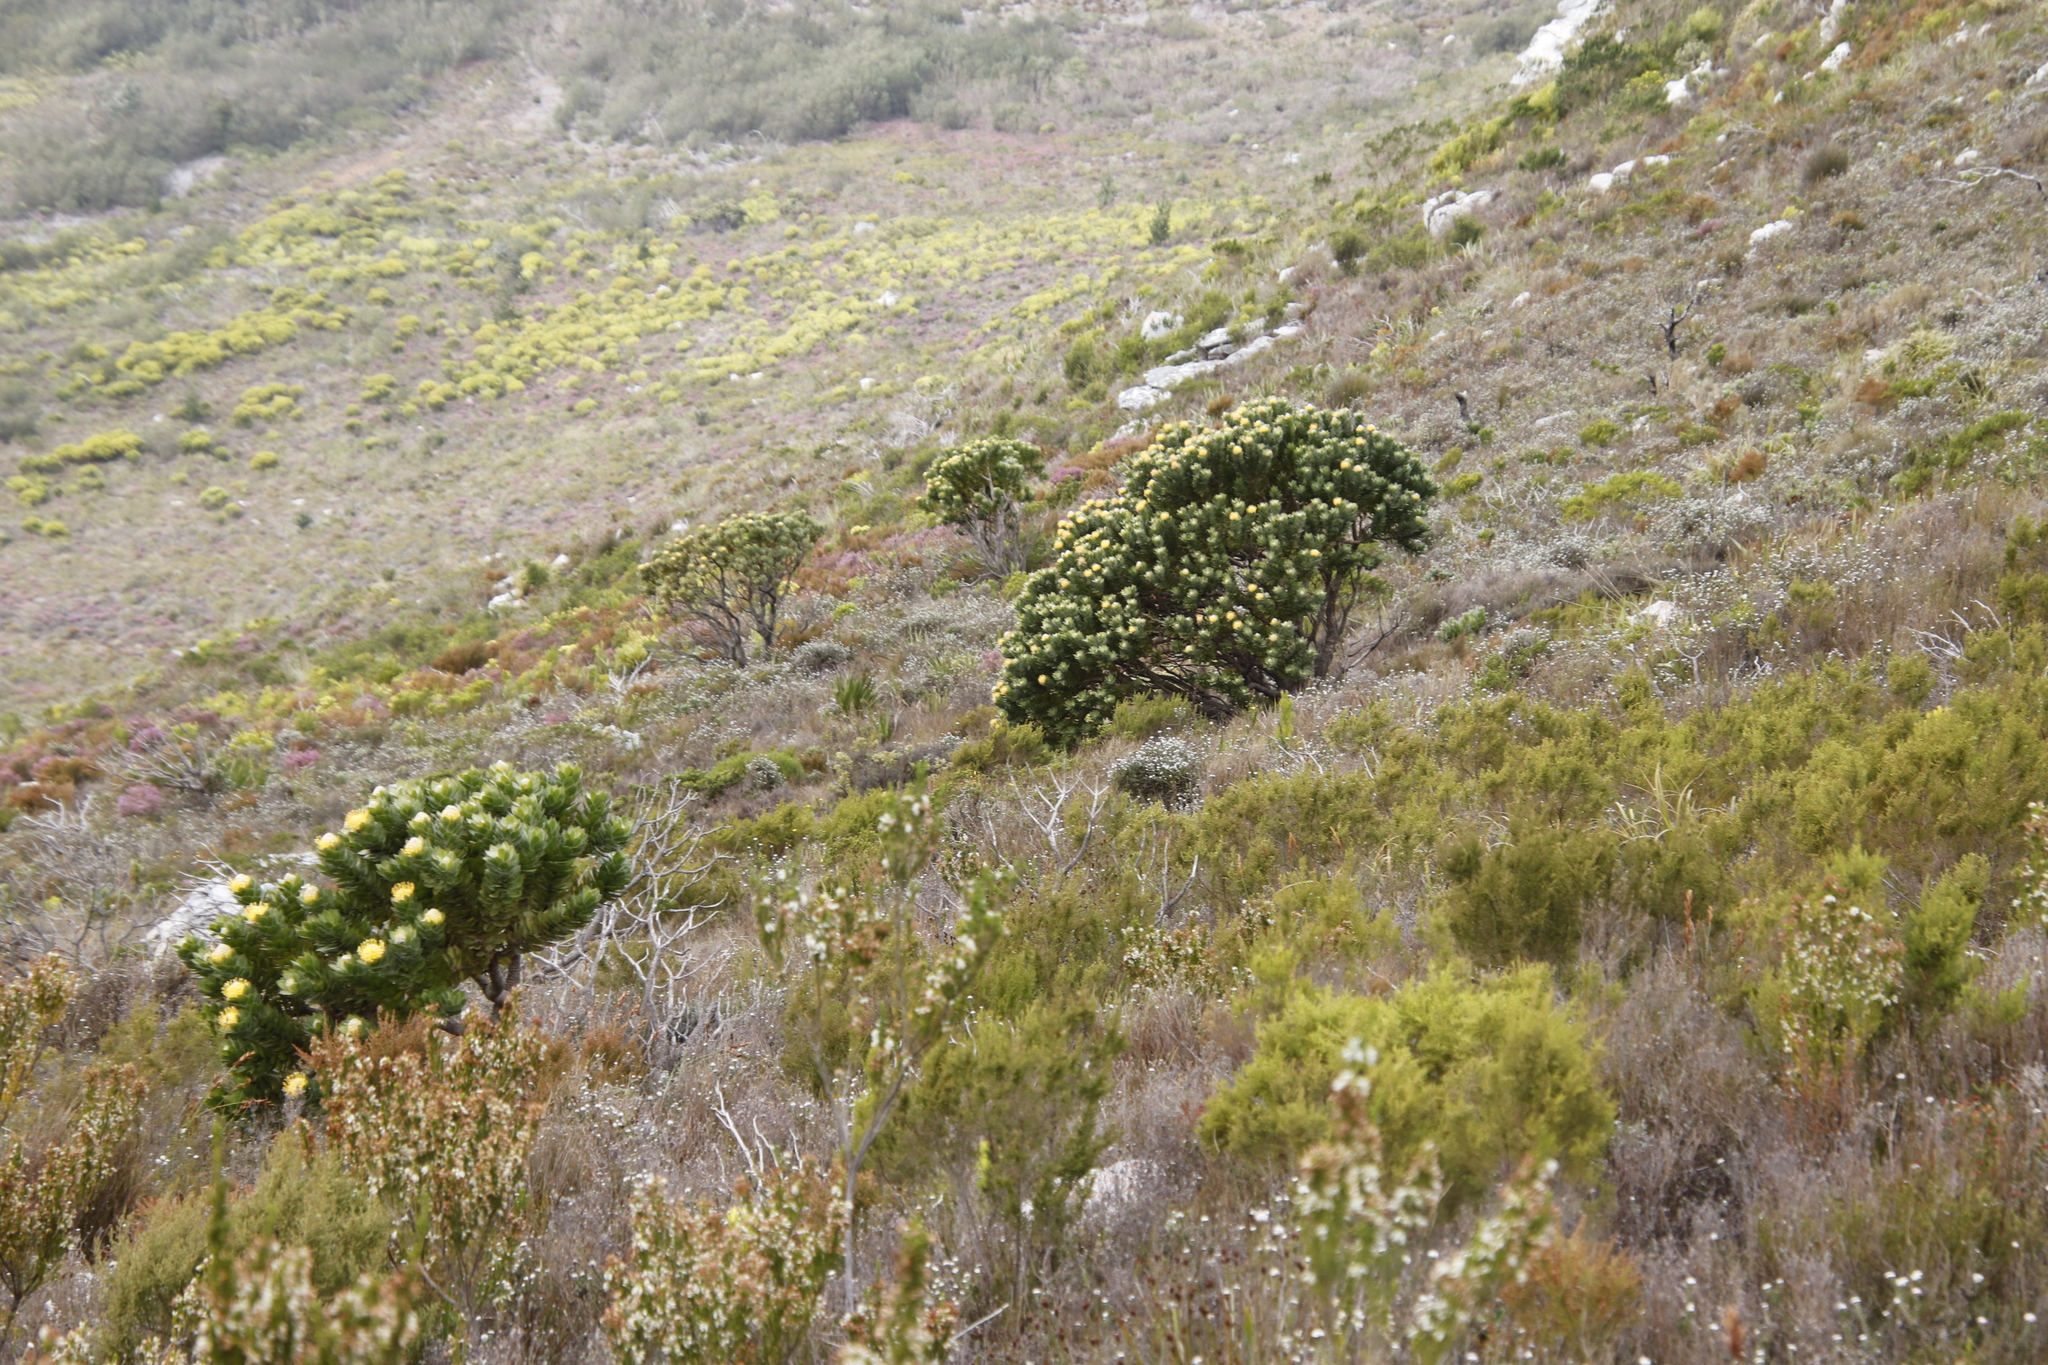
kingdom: Plantae
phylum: Tracheophyta
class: Magnoliopsida
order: Proteales
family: Proteaceae
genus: Leucospermum
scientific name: Leucospermum conocarpodendron
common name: Tree pincushion
